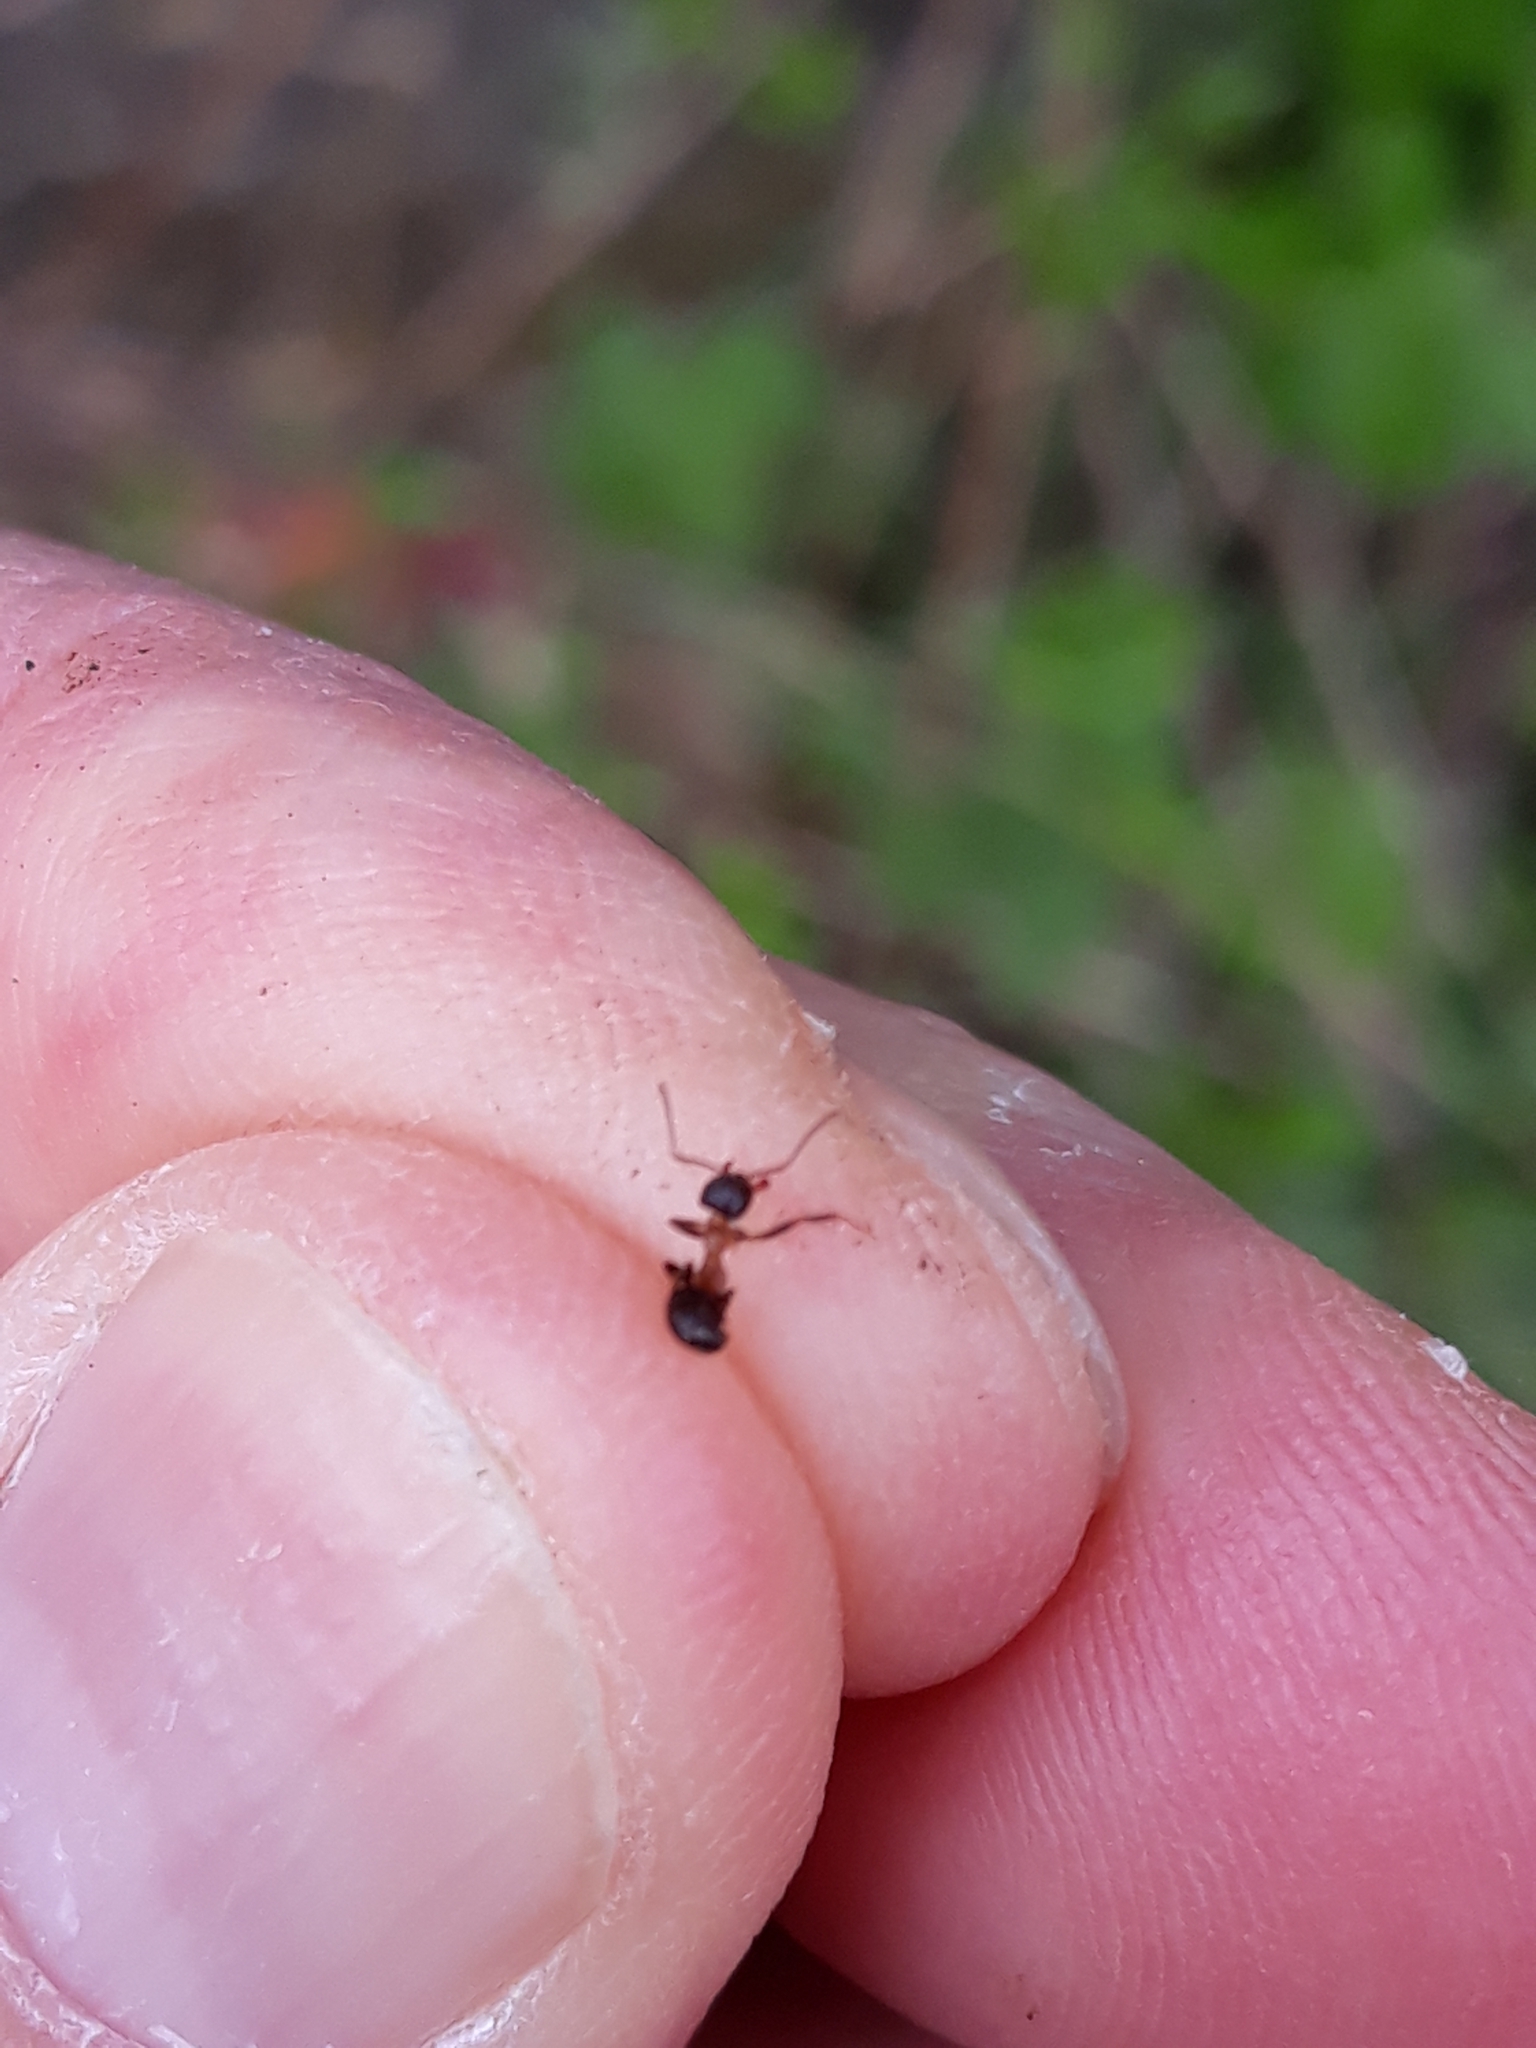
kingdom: Animalia
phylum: Arthropoda
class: Insecta
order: Hymenoptera
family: Formicidae
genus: Lasius
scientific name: Lasius emarginatus
